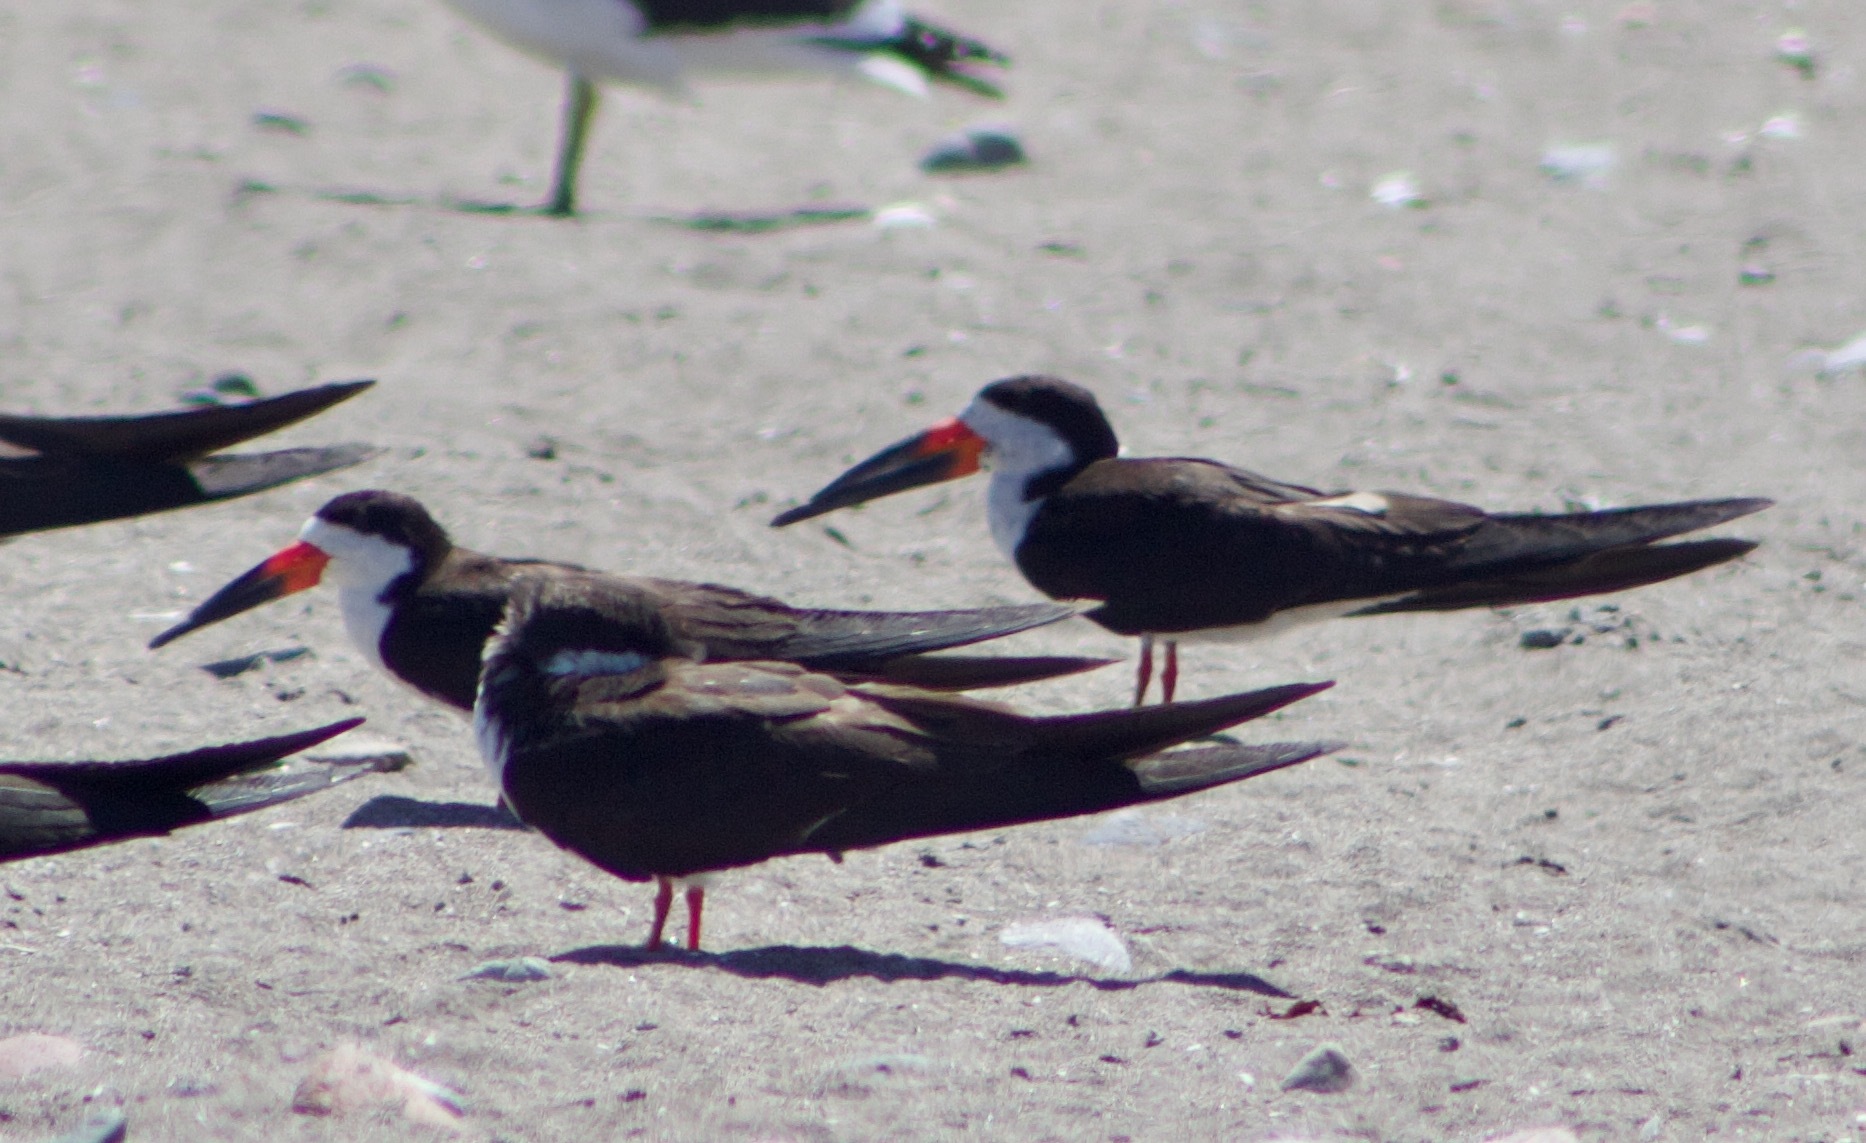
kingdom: Animalia
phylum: Chordata
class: Aves
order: Charadriiformes
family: Laridae
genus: Rynchops
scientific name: Rynchops niger
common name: Black skimmer
